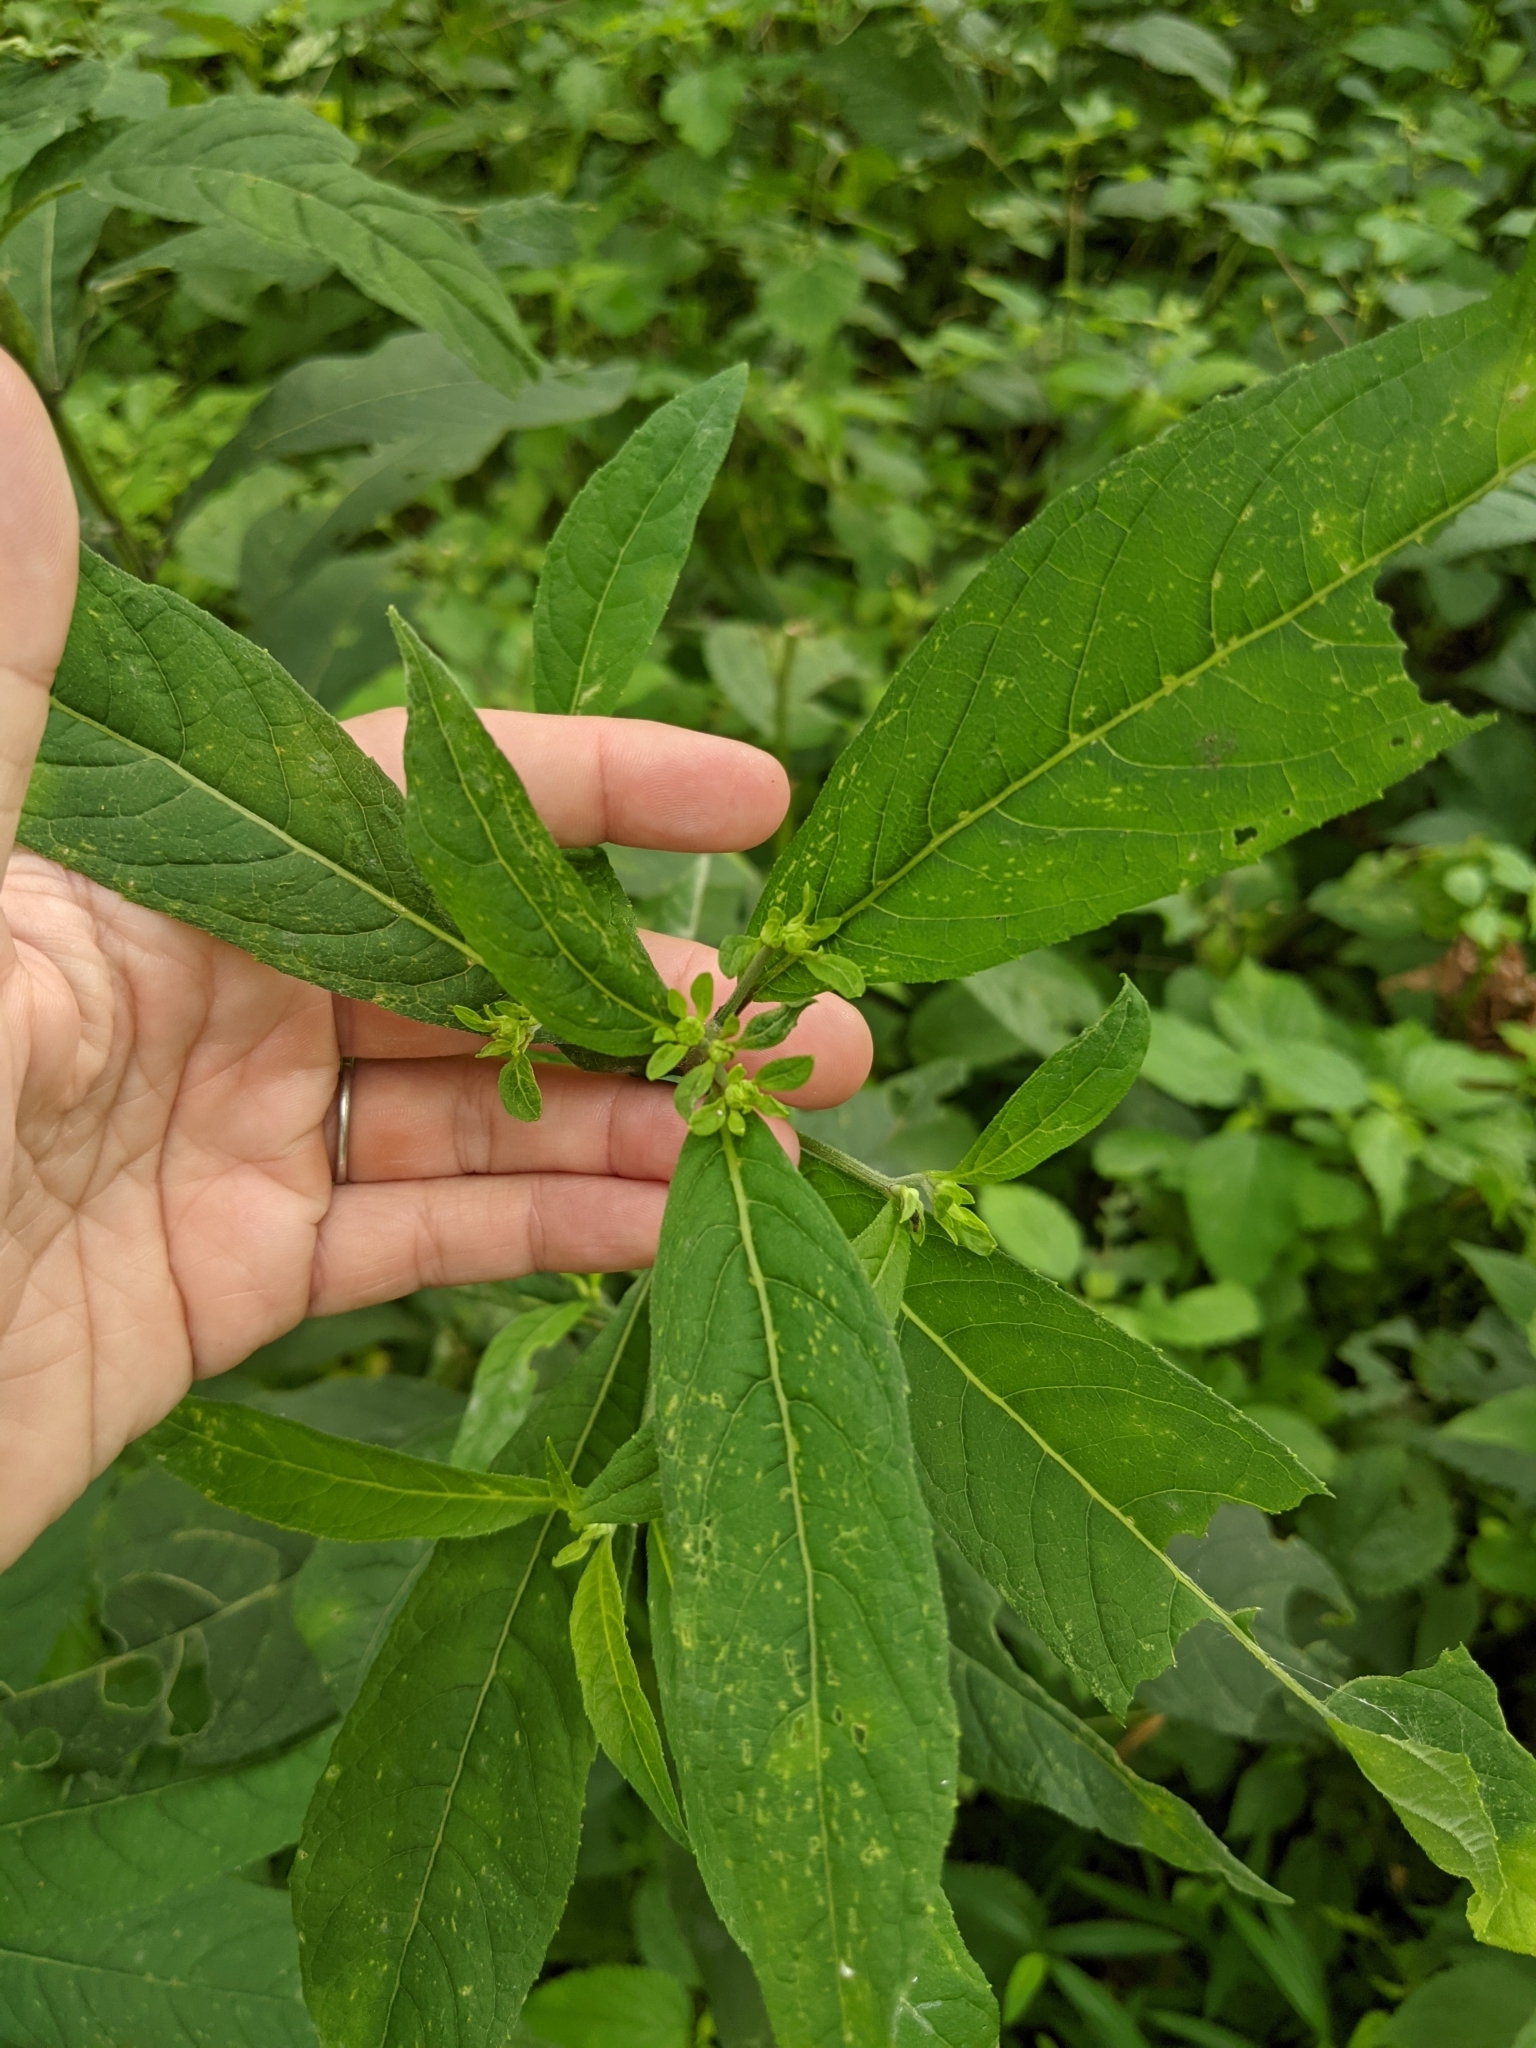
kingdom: Plantae
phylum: Tracheophyta
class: Magnoliopsida
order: Asterales
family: Asteraceae
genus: Verbesina
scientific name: Verbesina alternifolia
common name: Wingstem
